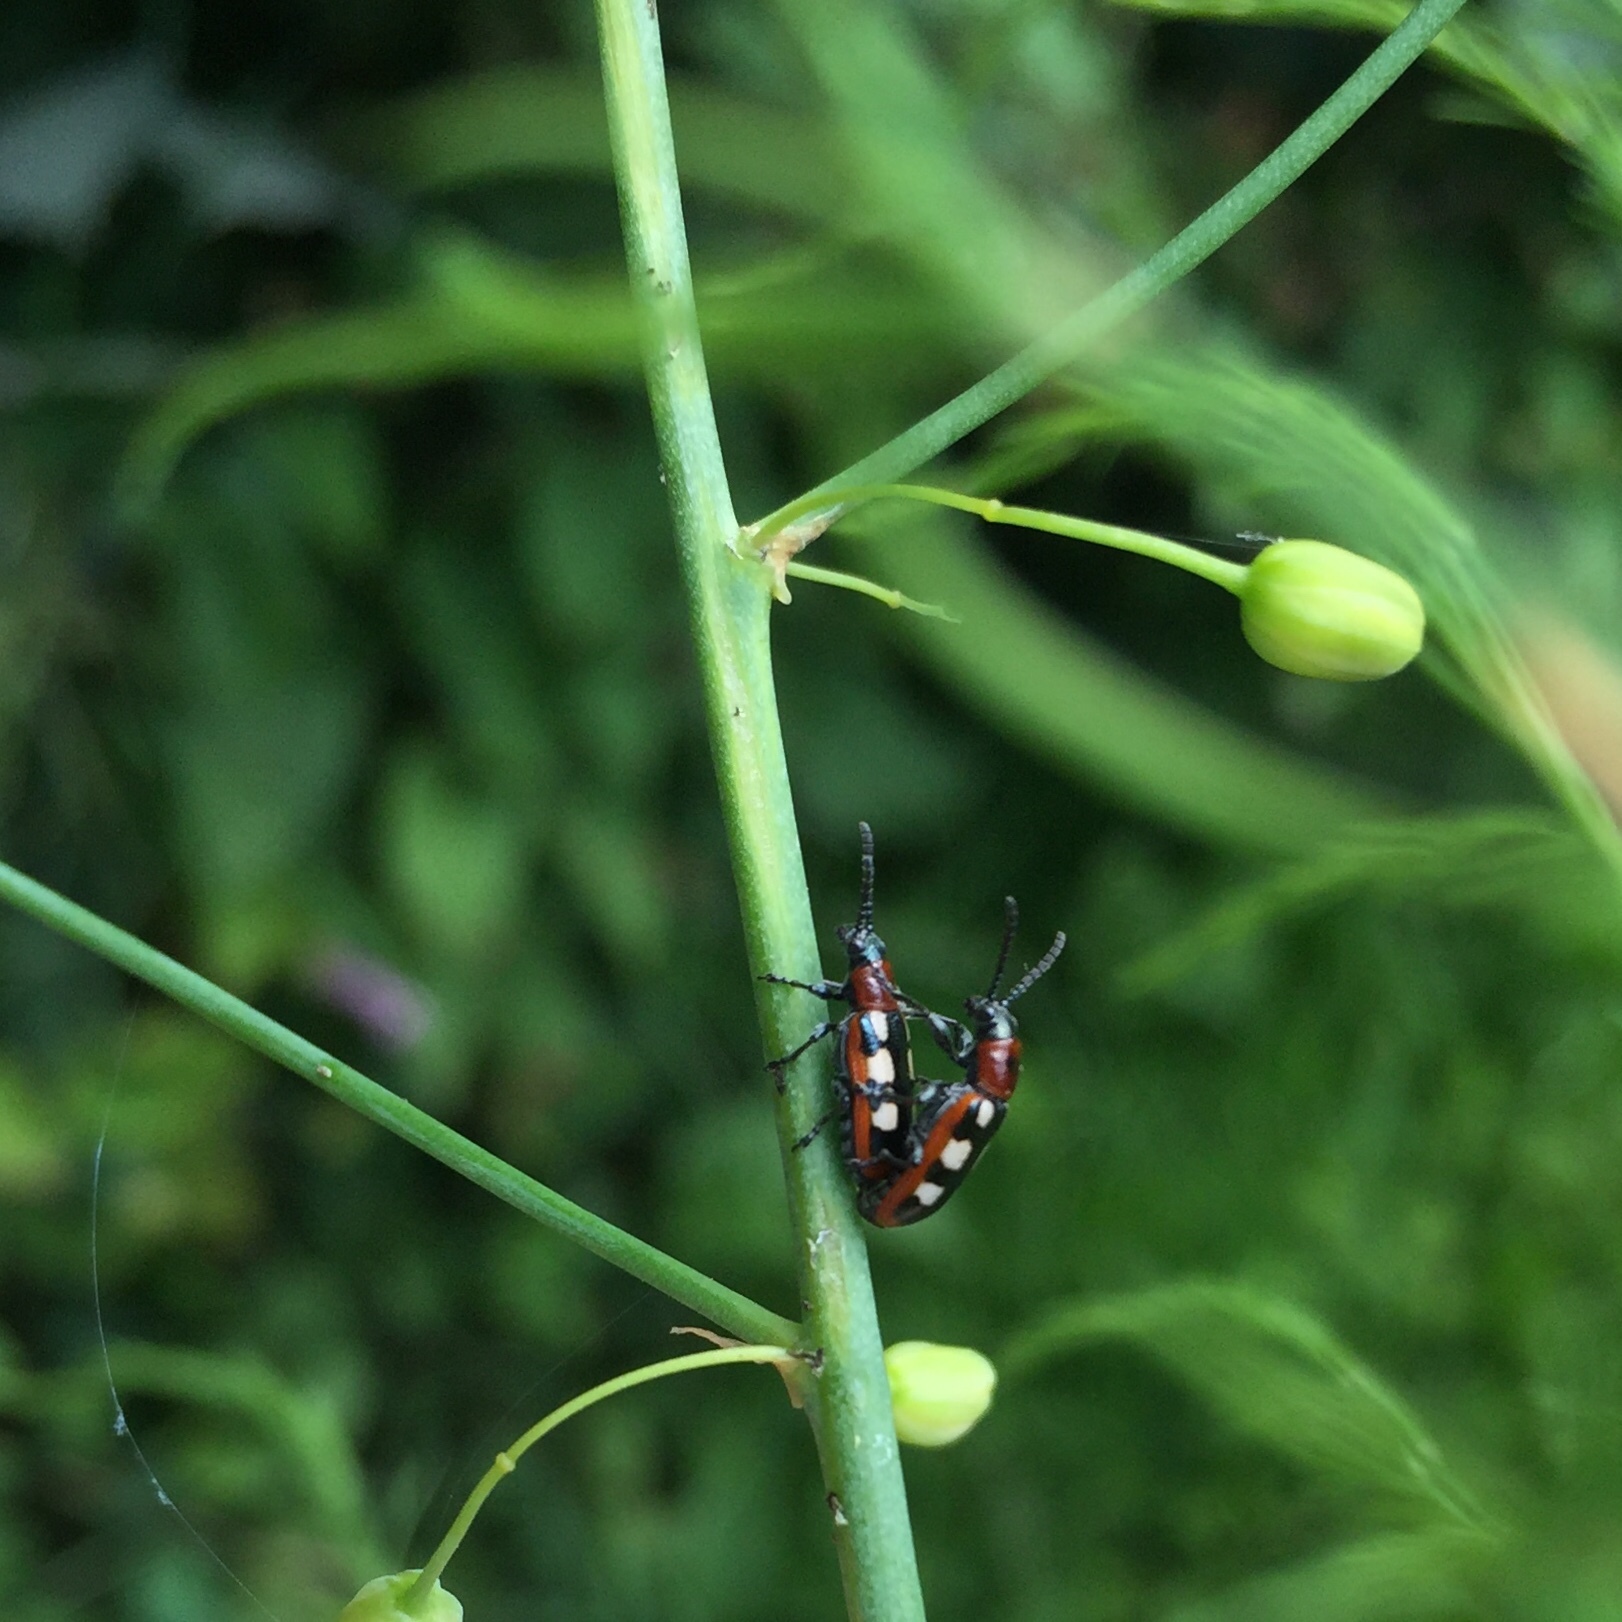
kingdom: Animalia
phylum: Arthropoda
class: Insecta
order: Coleoptera
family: Chrysomelidae
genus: Crioceris
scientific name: Crioceris asparagi
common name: Asparagus beetle
